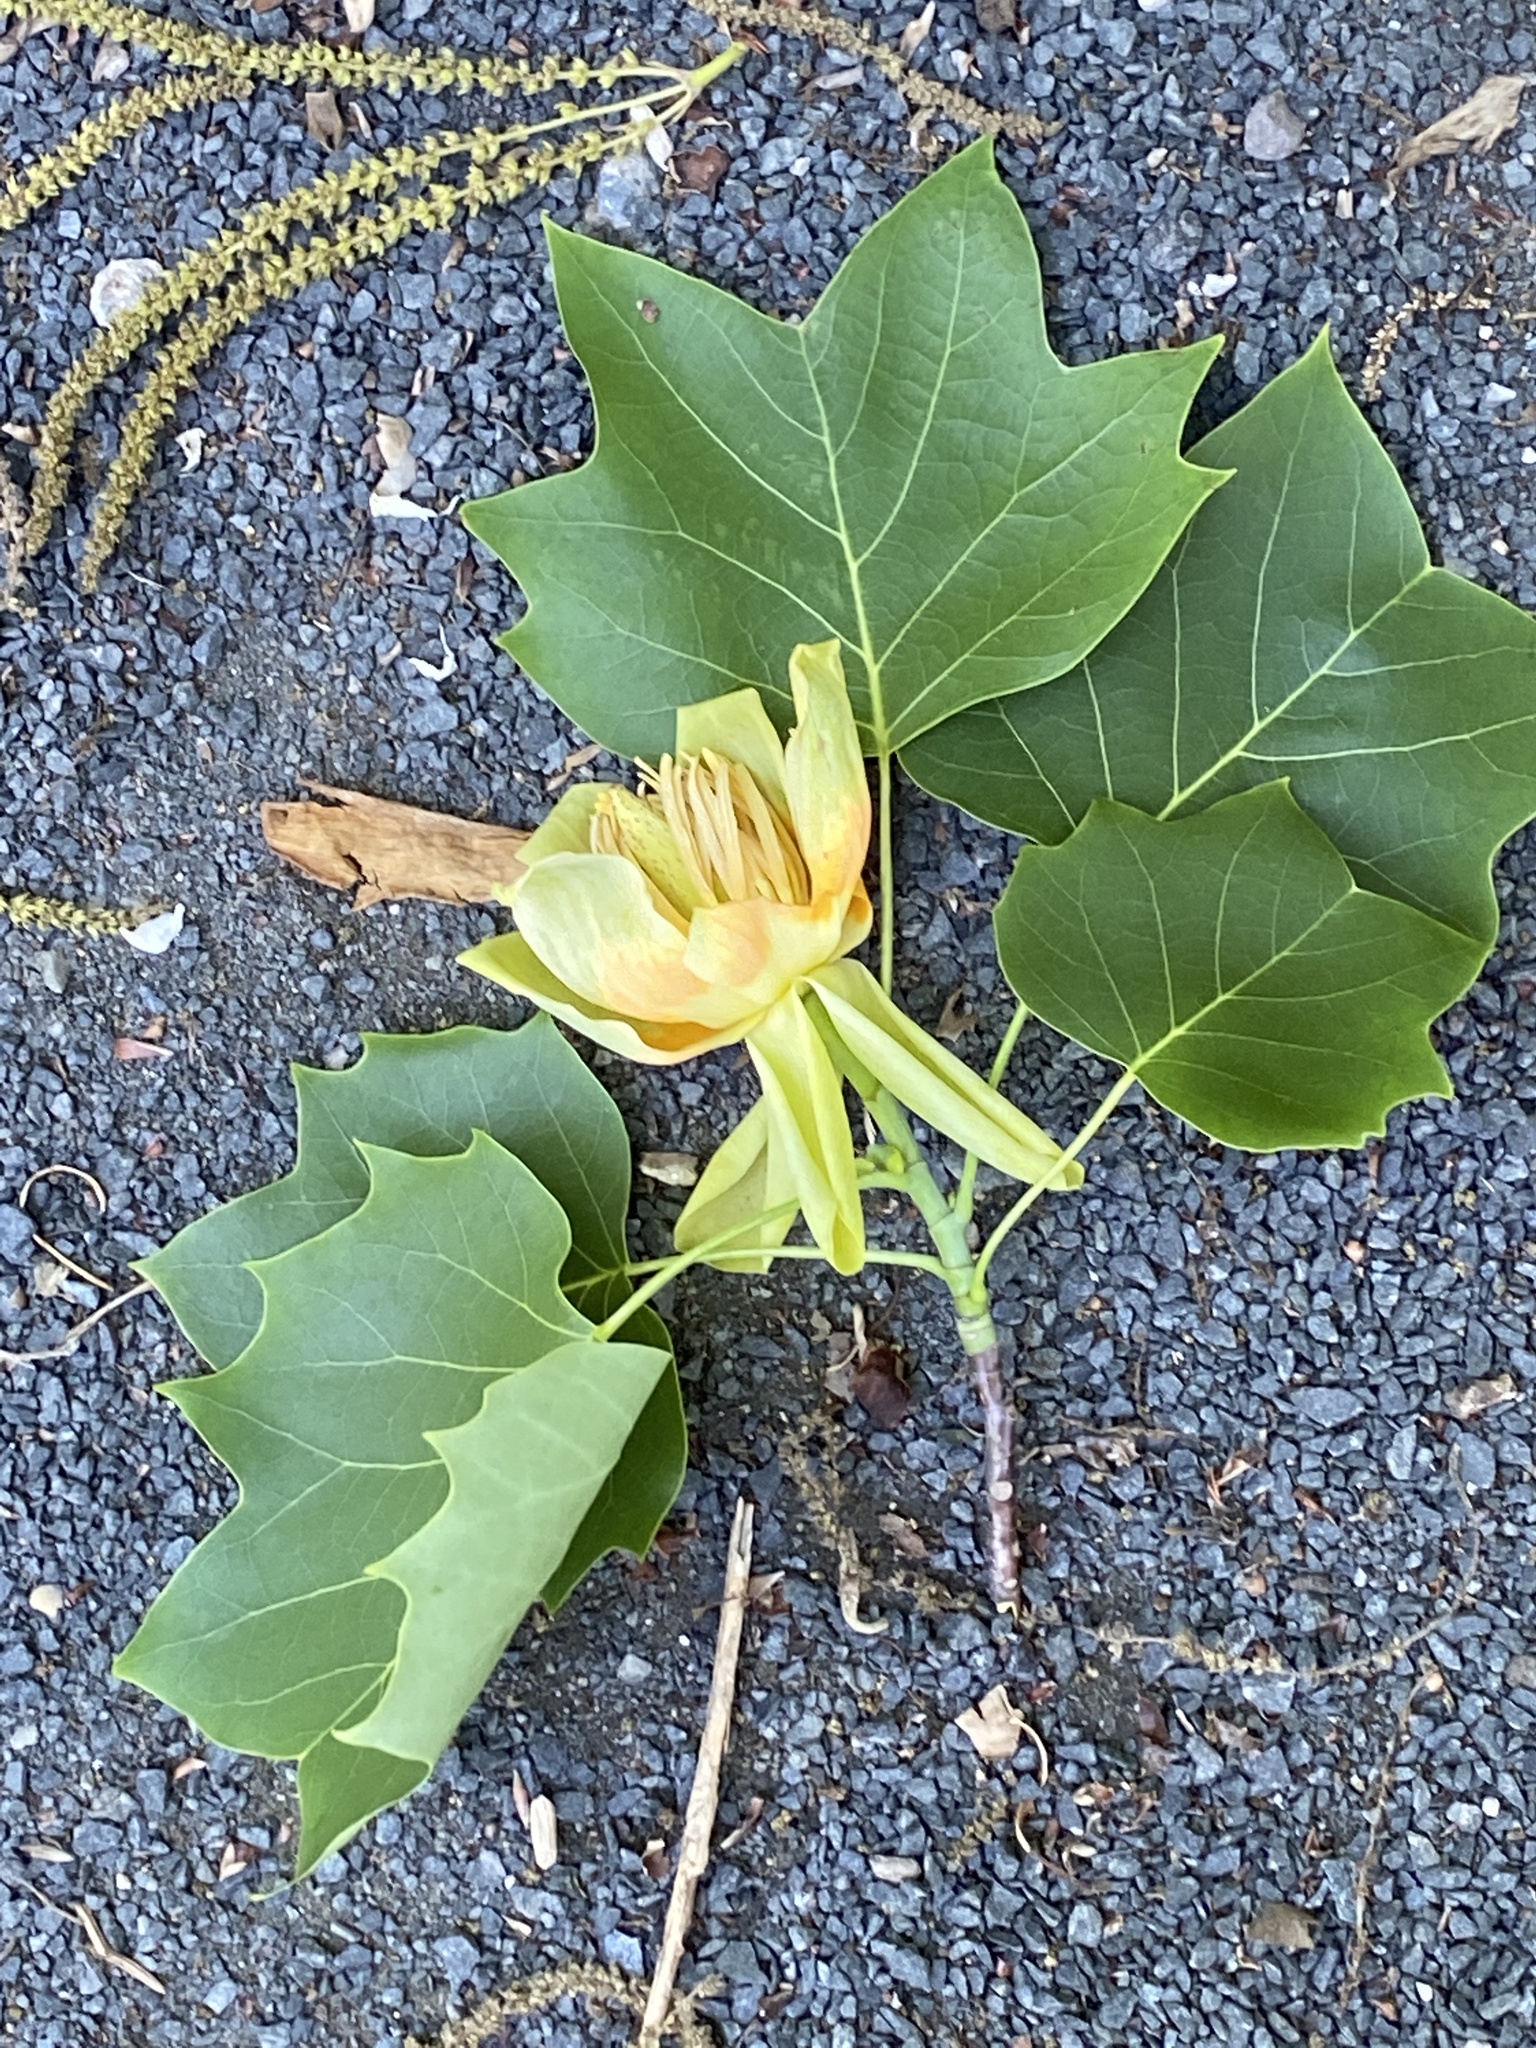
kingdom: Plantae
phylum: Tracheophyta
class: Magnoliopsida
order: Magnoliales
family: Magnoliaceae
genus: Liriodendron
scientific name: Liriodendron tulipifera
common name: Tulip tree
